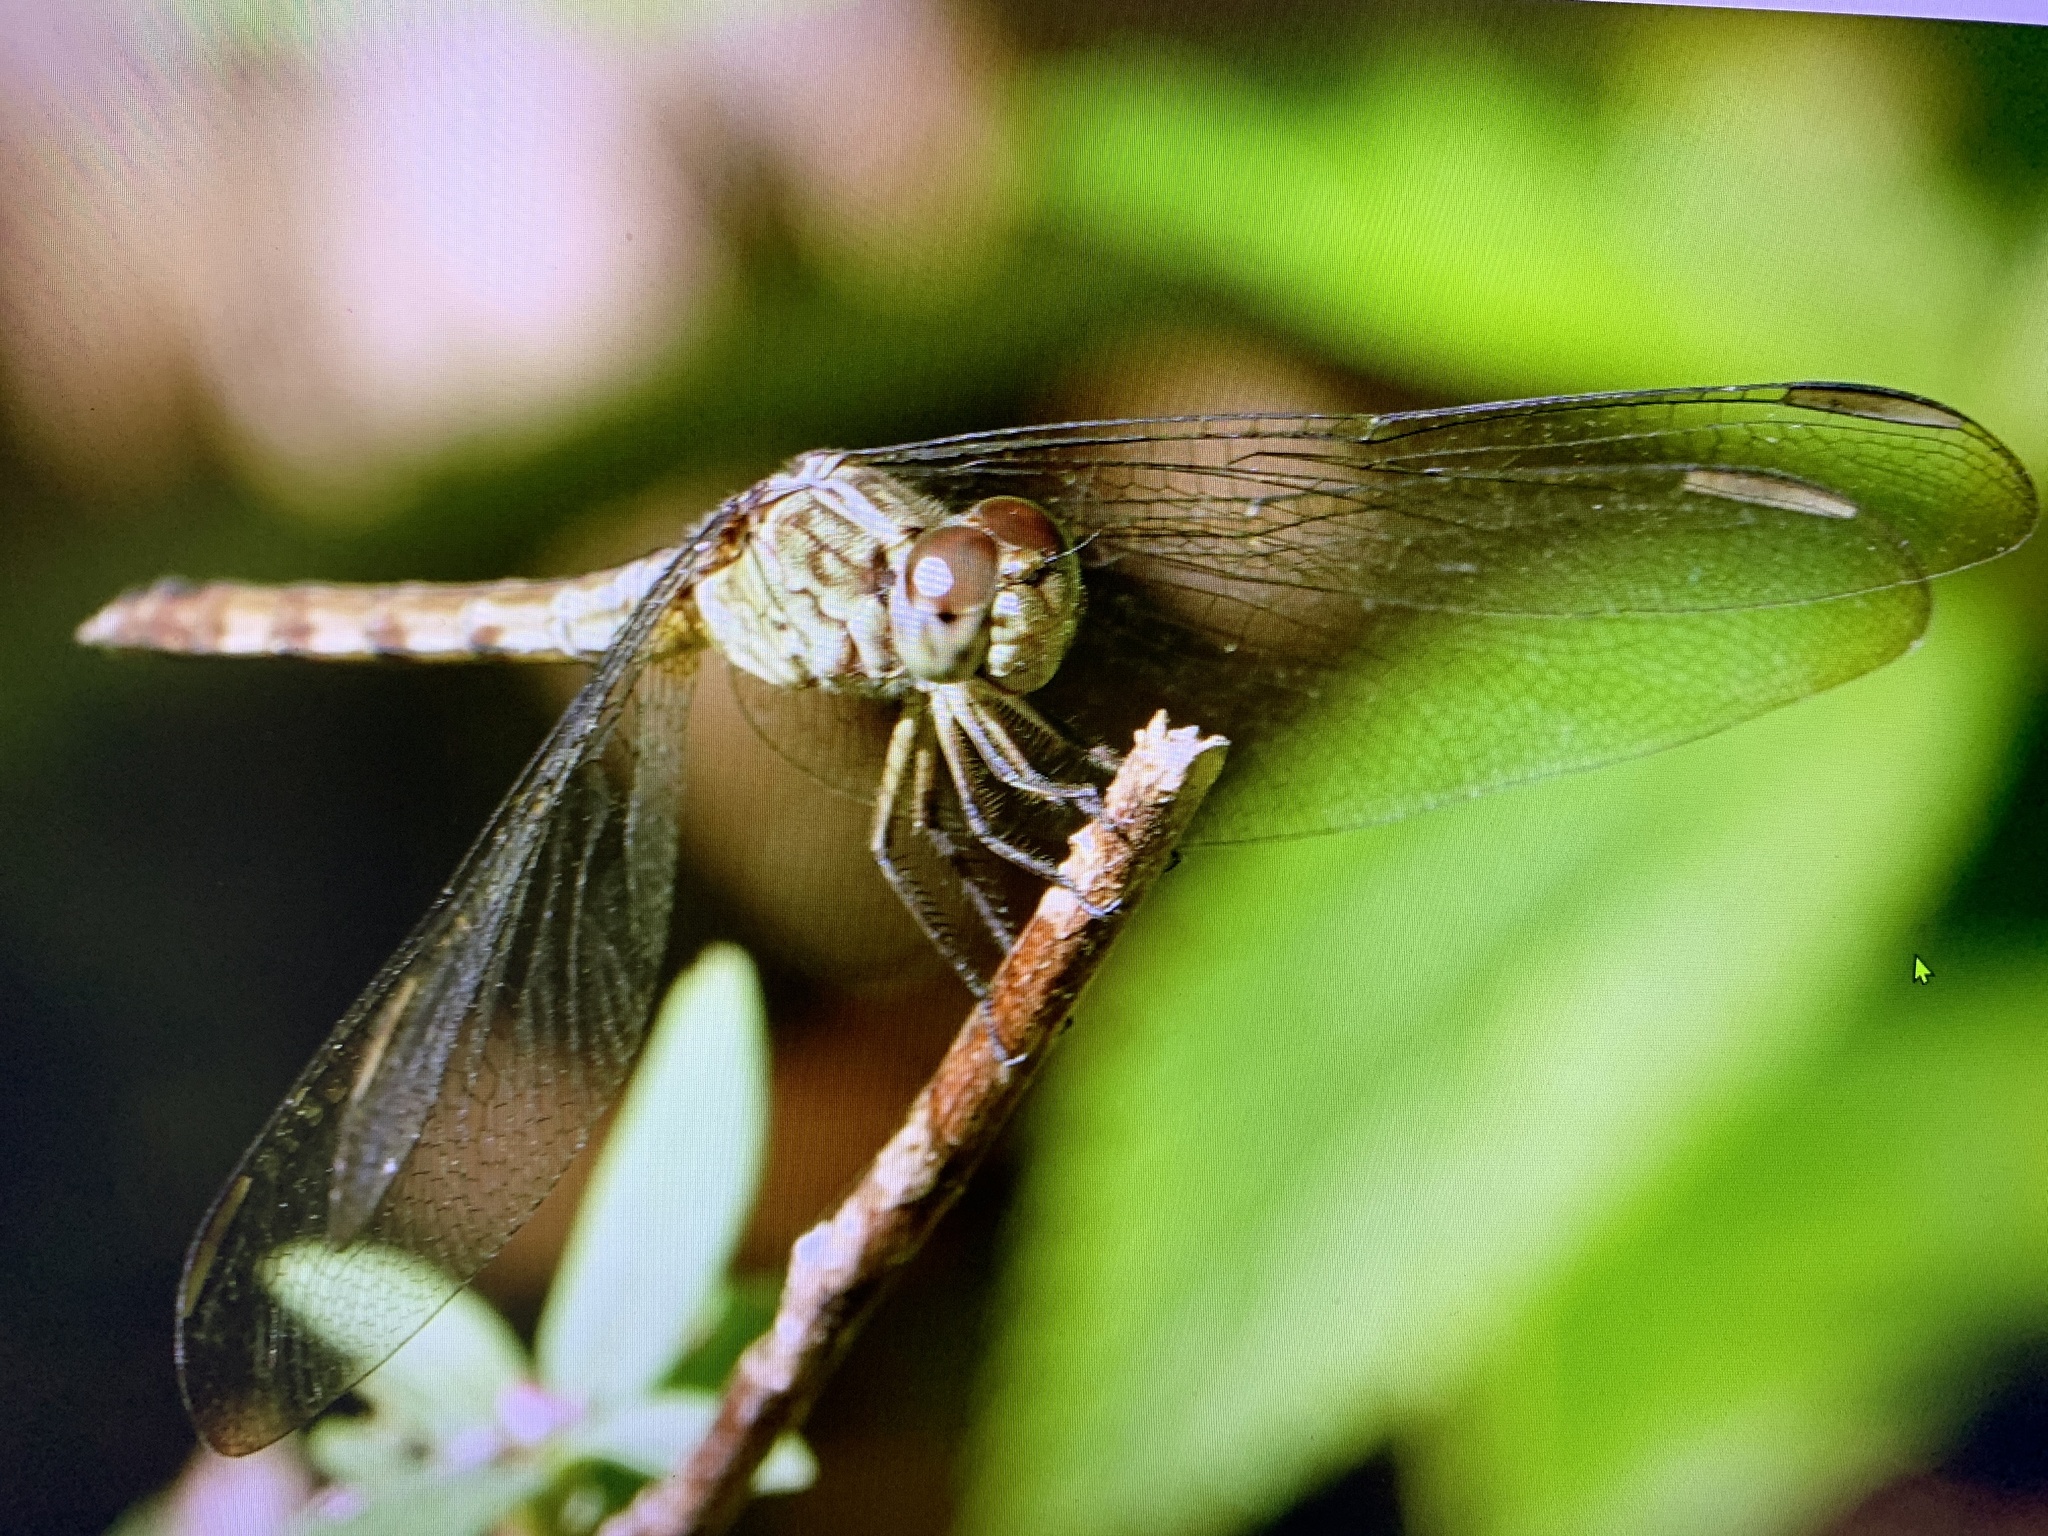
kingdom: Animalia
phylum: Arthropoda
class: Insecta
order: Odonata
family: Libellulidae
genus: Erythrodiplax
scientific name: Erythrodiplax umbrata
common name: Band-winged dragonlet
